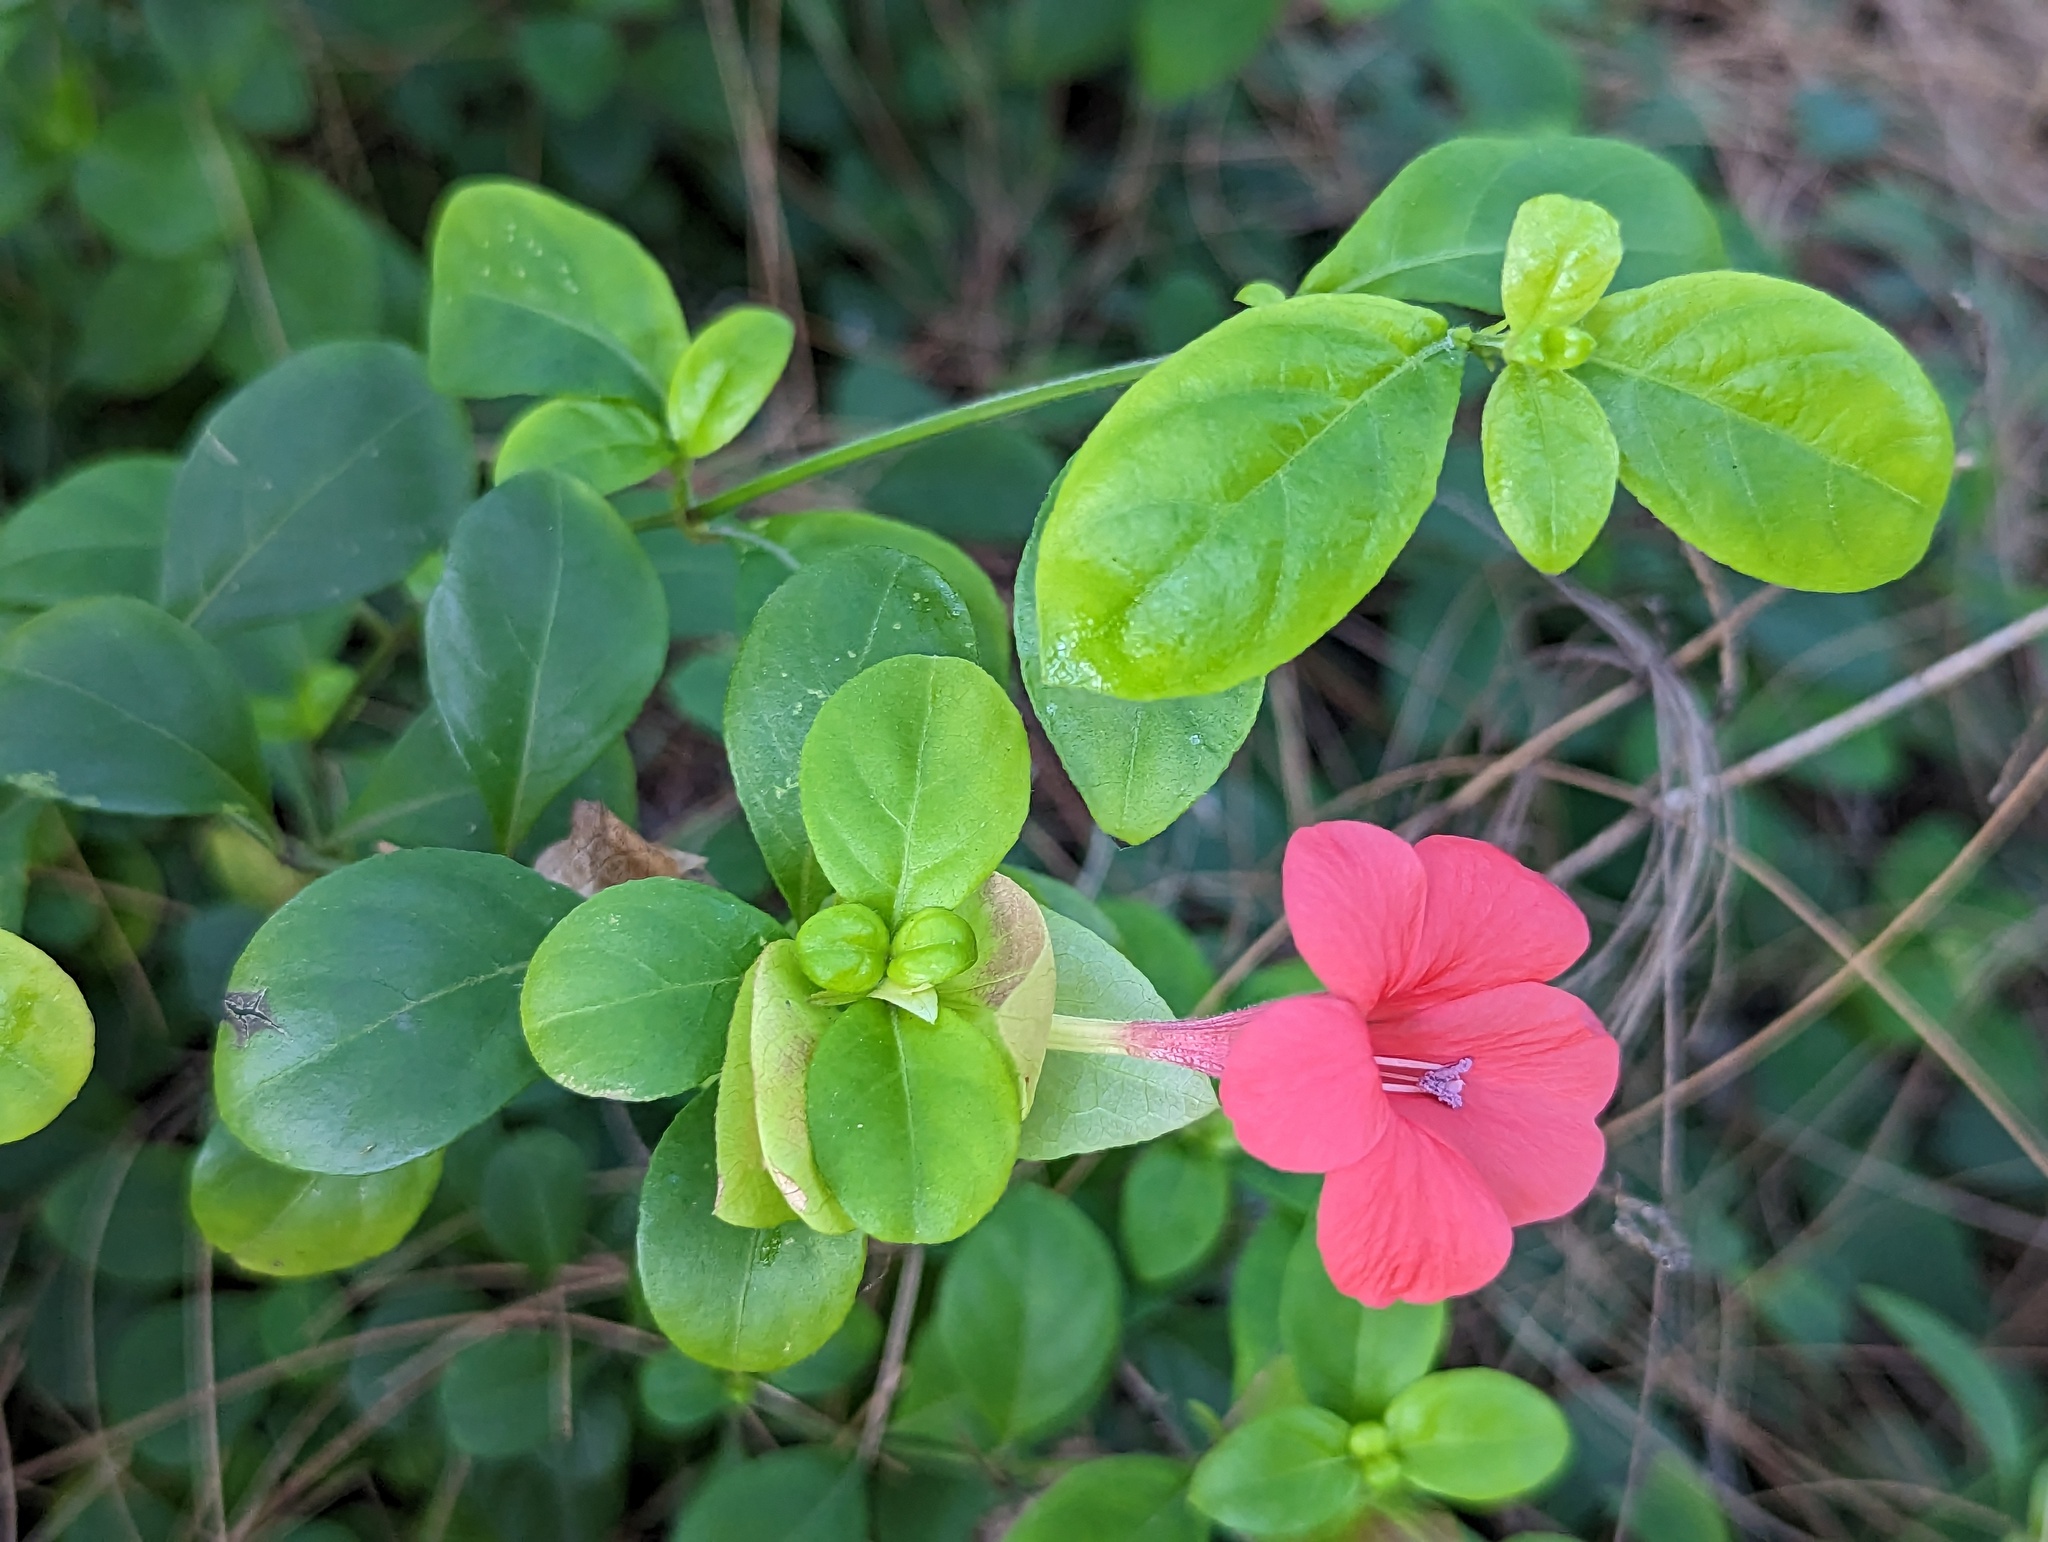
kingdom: Plantae
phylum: Tracheophyta
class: Magnoliopsida
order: Lamiales
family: Acanthaceae
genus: Barleria
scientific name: Barleria repens
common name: Pink-ruellia
